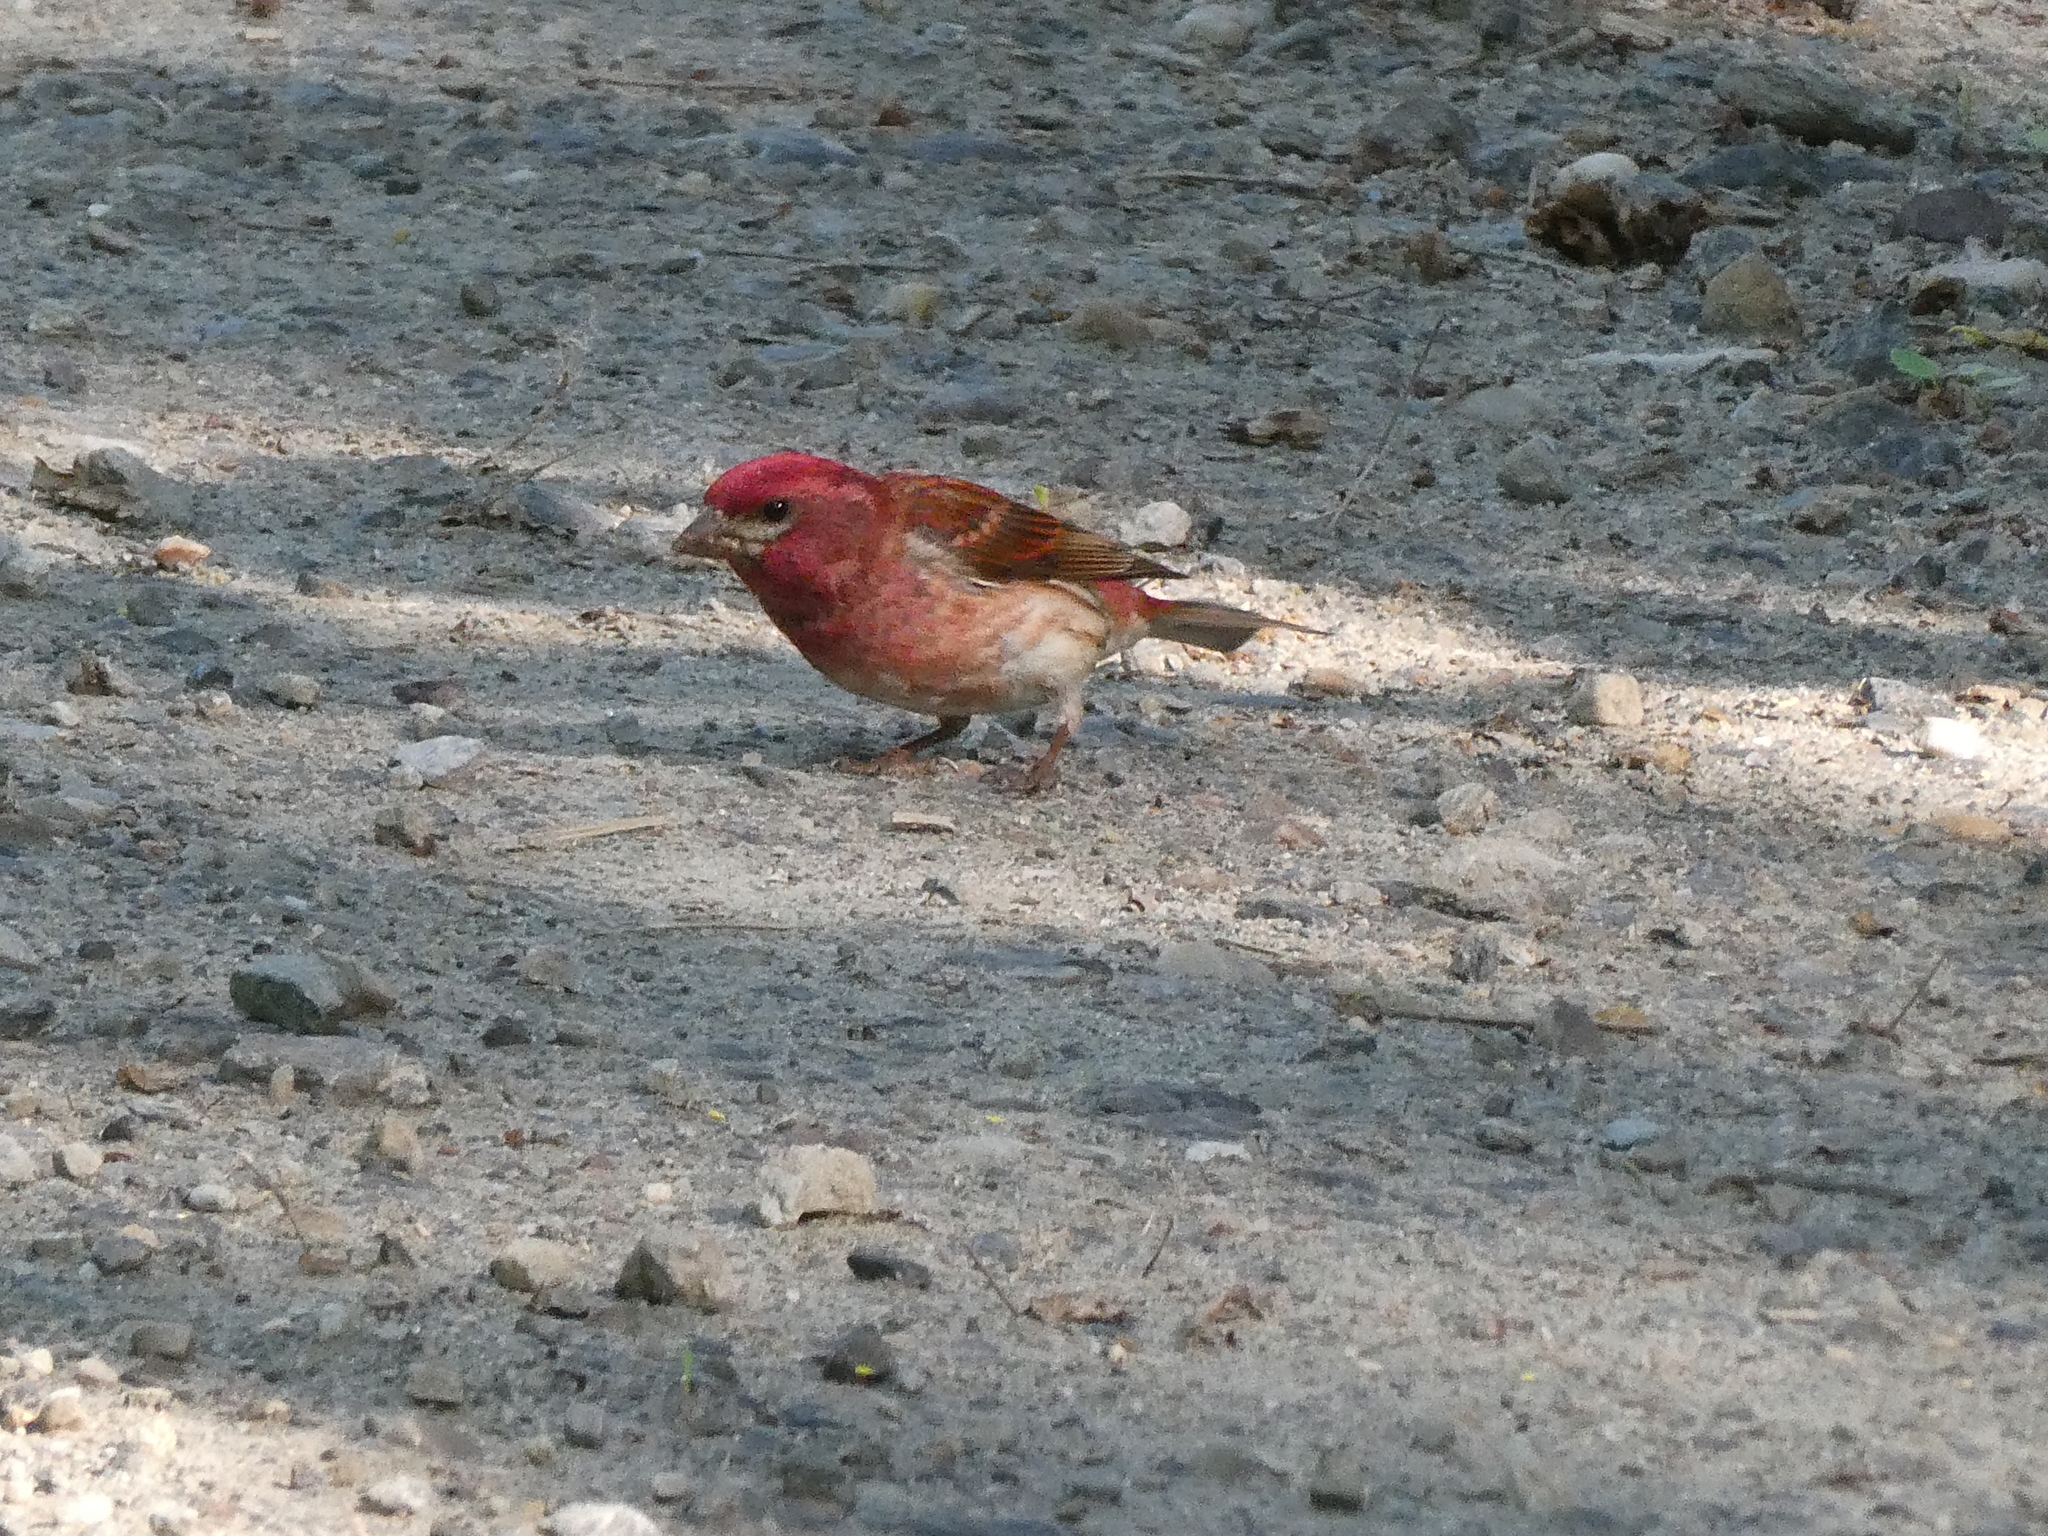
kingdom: Animalia
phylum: Chordata
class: Aves
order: Passeriformes
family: Fringillidae
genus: Haemorhous
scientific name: Haemorhous purpureus
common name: Purple finch
